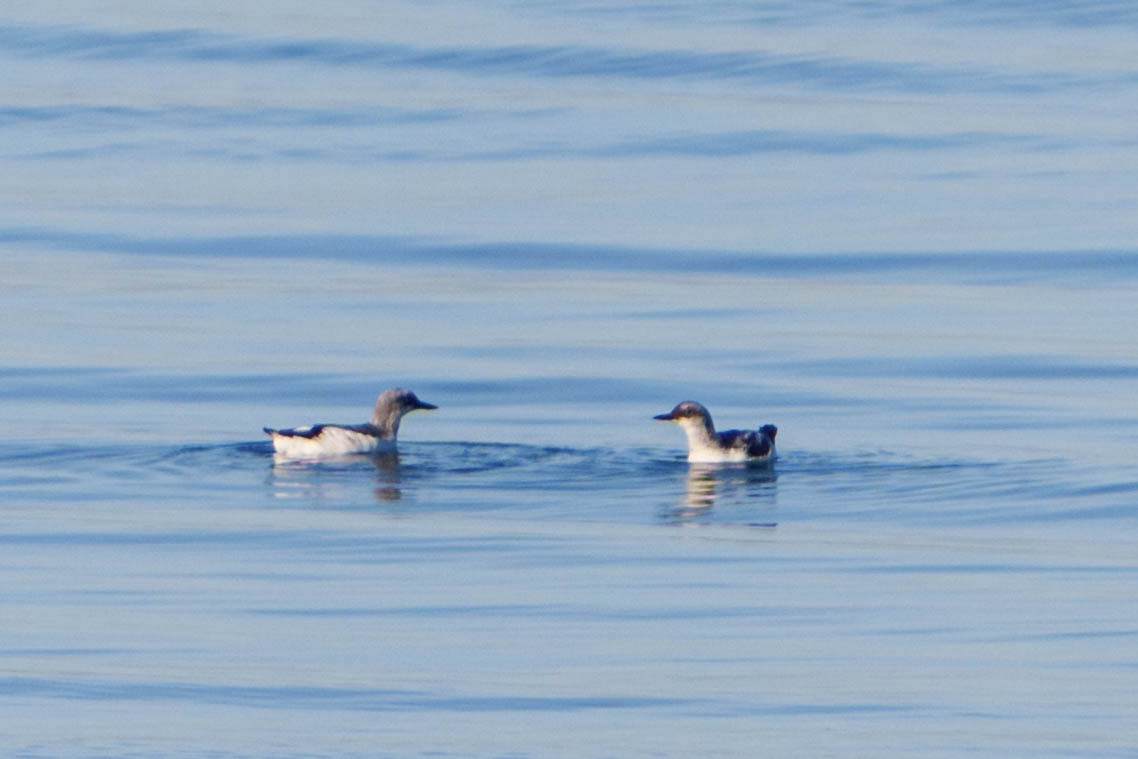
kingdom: Animalia
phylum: Chordata
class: Aves
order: Charadriiformes
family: Alcidae
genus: Cepphus
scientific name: Cepphus columba
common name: Pigeon guillemot
